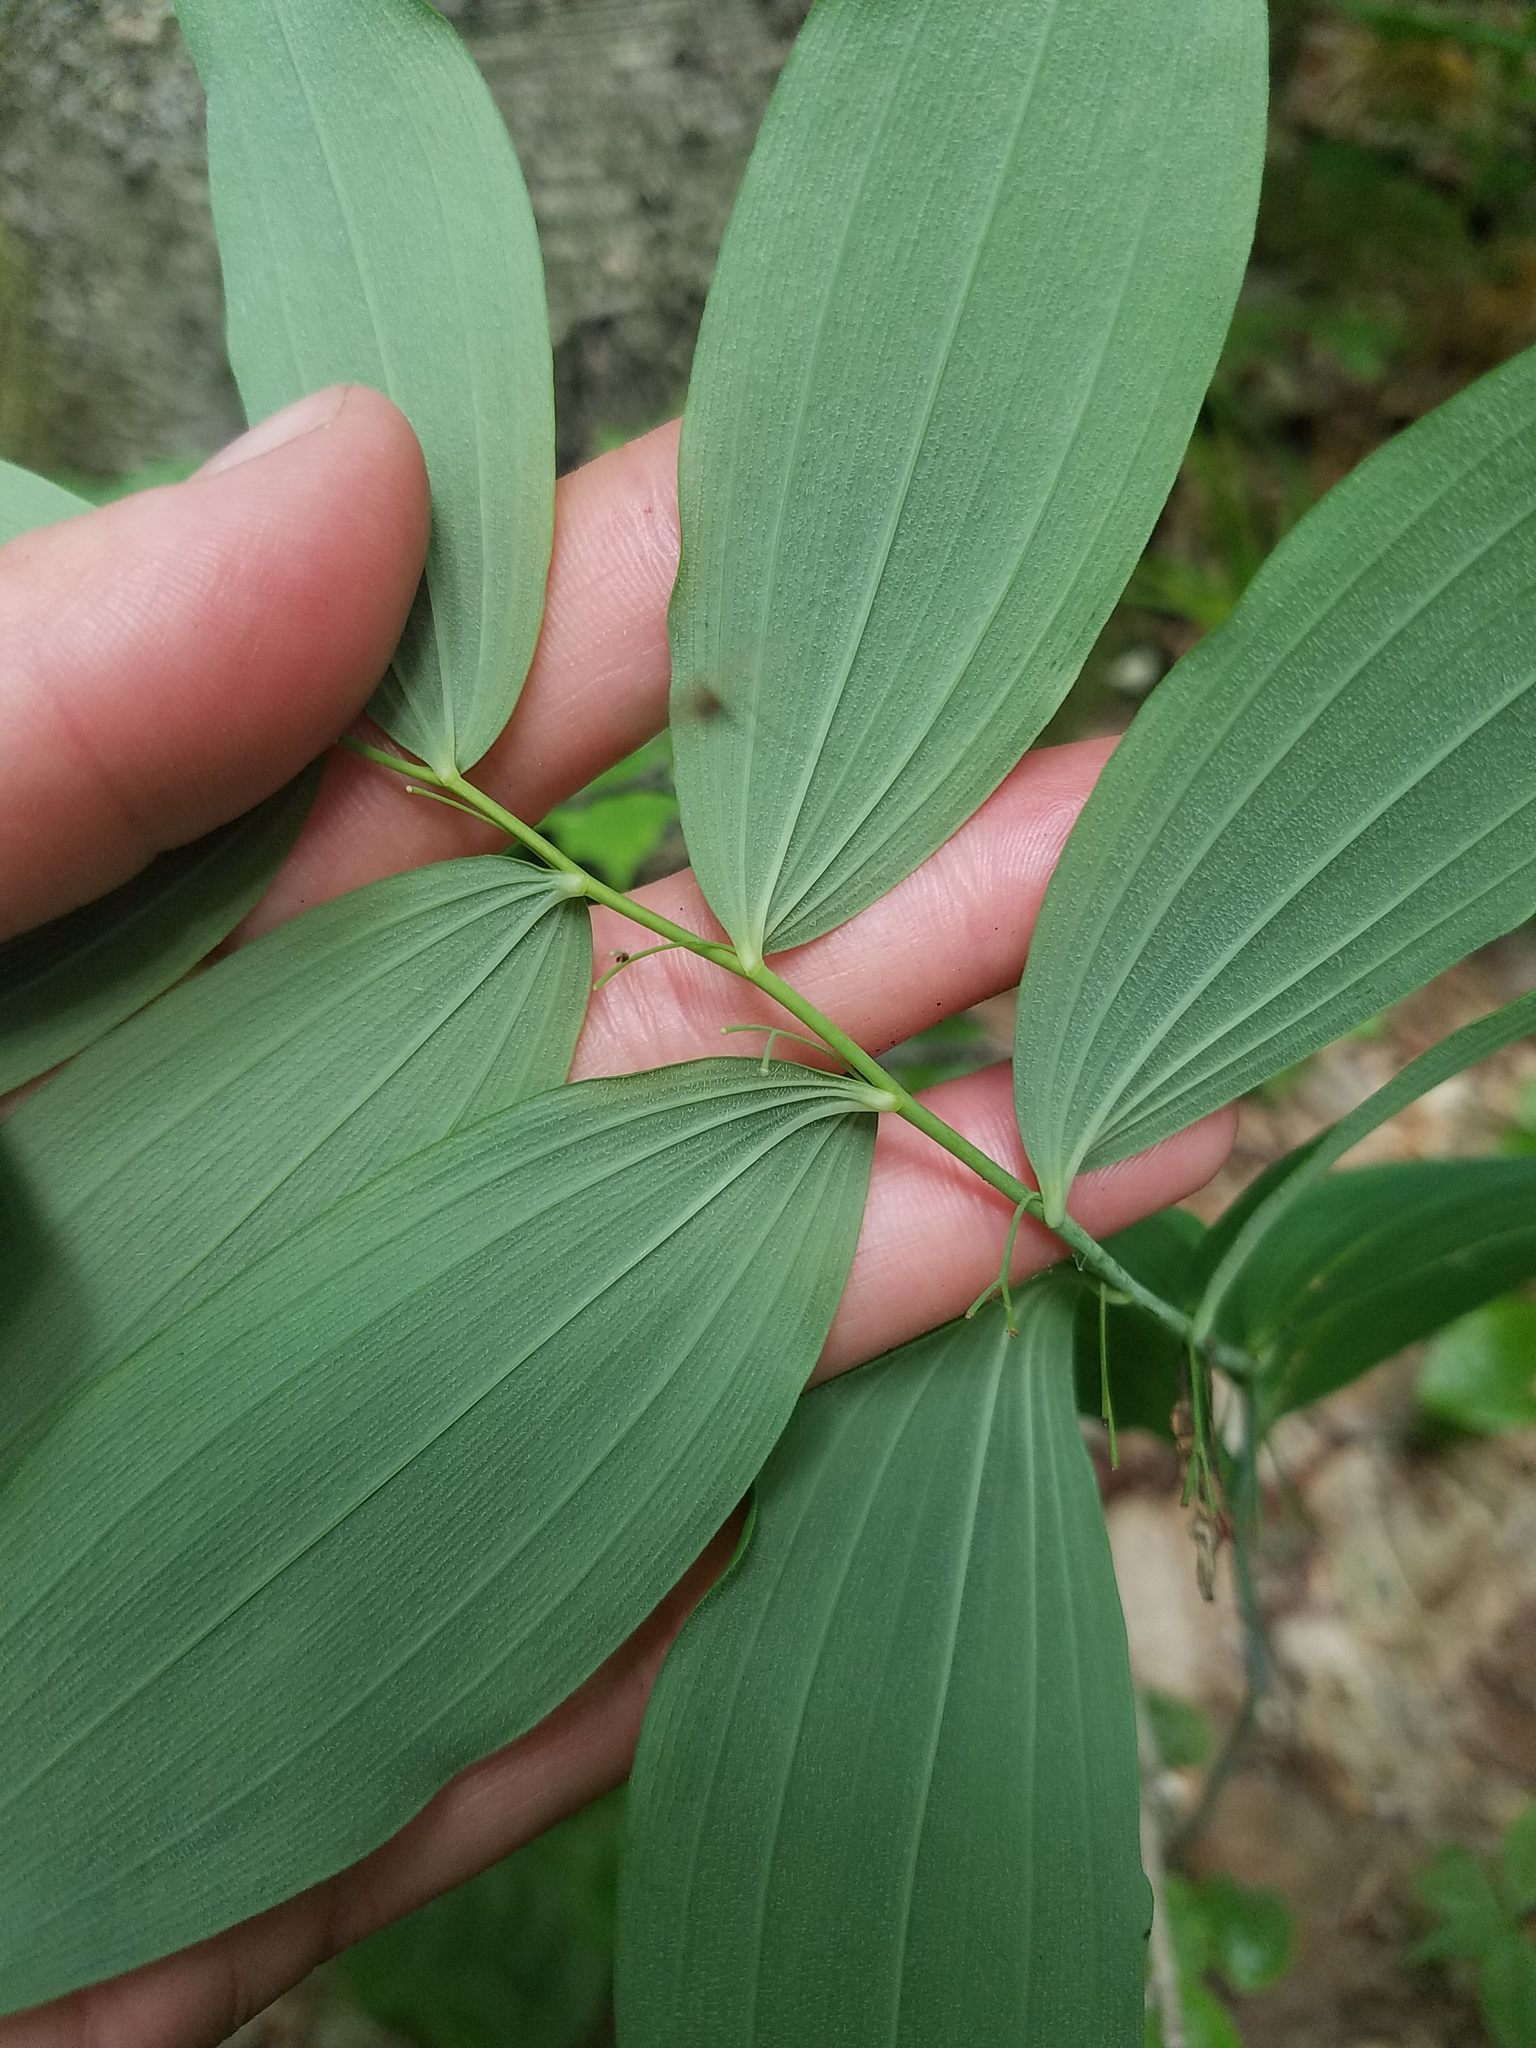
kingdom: Plantae
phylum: Tracheophyta
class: Liliopsida
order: Asparagales
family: Asparagaceae
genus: Polygonatum
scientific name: Polygonatum pubescens
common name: Downy solomon's seal
